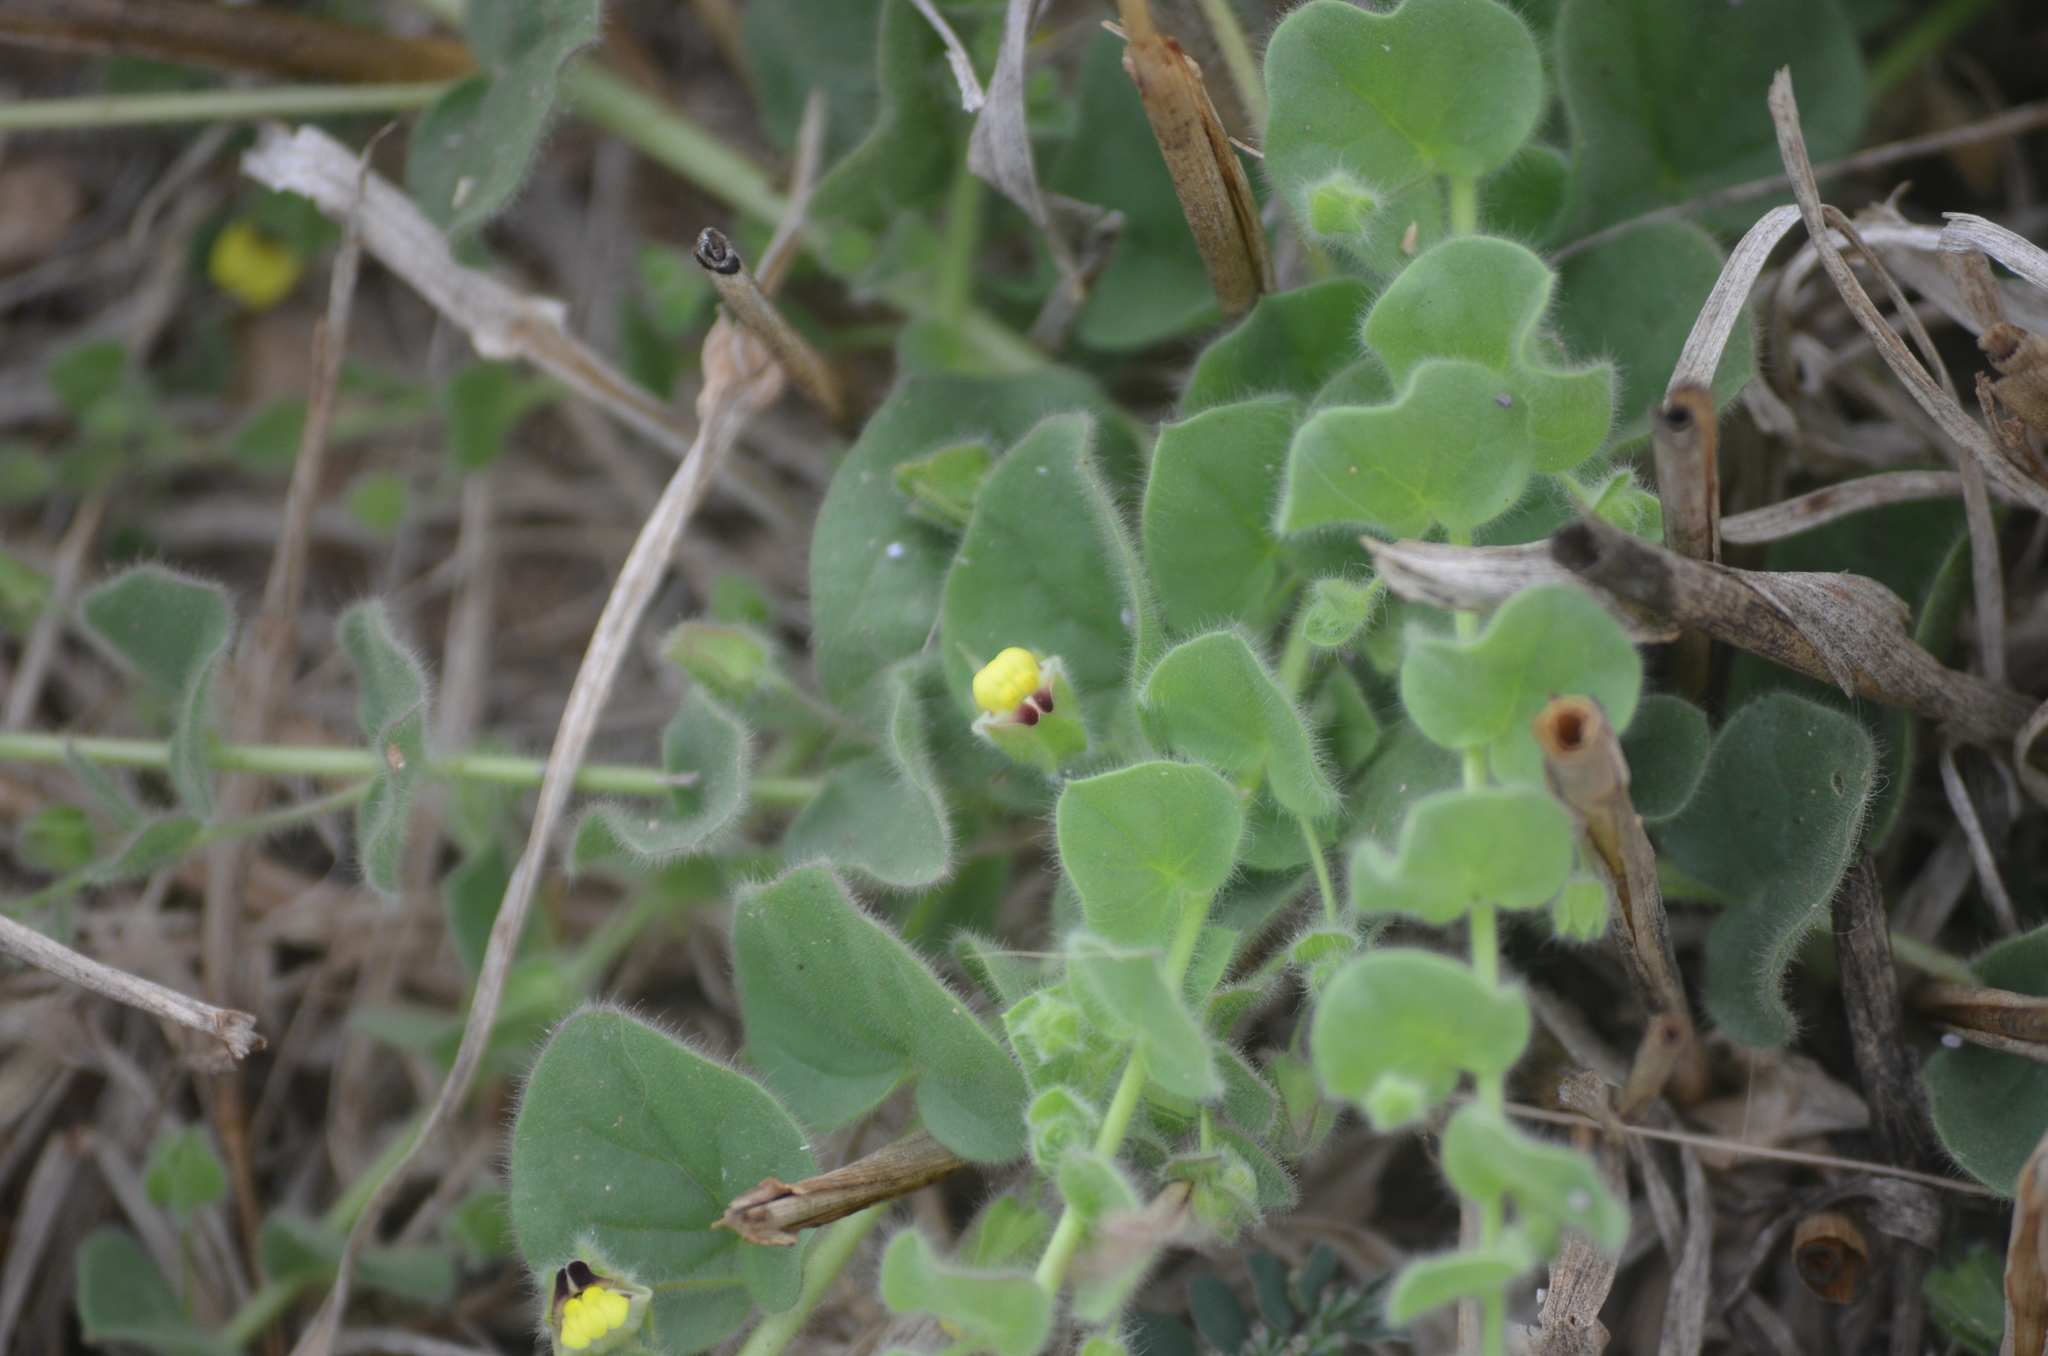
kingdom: Plantae
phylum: Tracheophyta
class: Magnoliopsida
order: Lamiales
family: Plantaginaceae
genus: Kickxia
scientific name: Kickxia elatine
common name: Sharp-leaved fluellen
